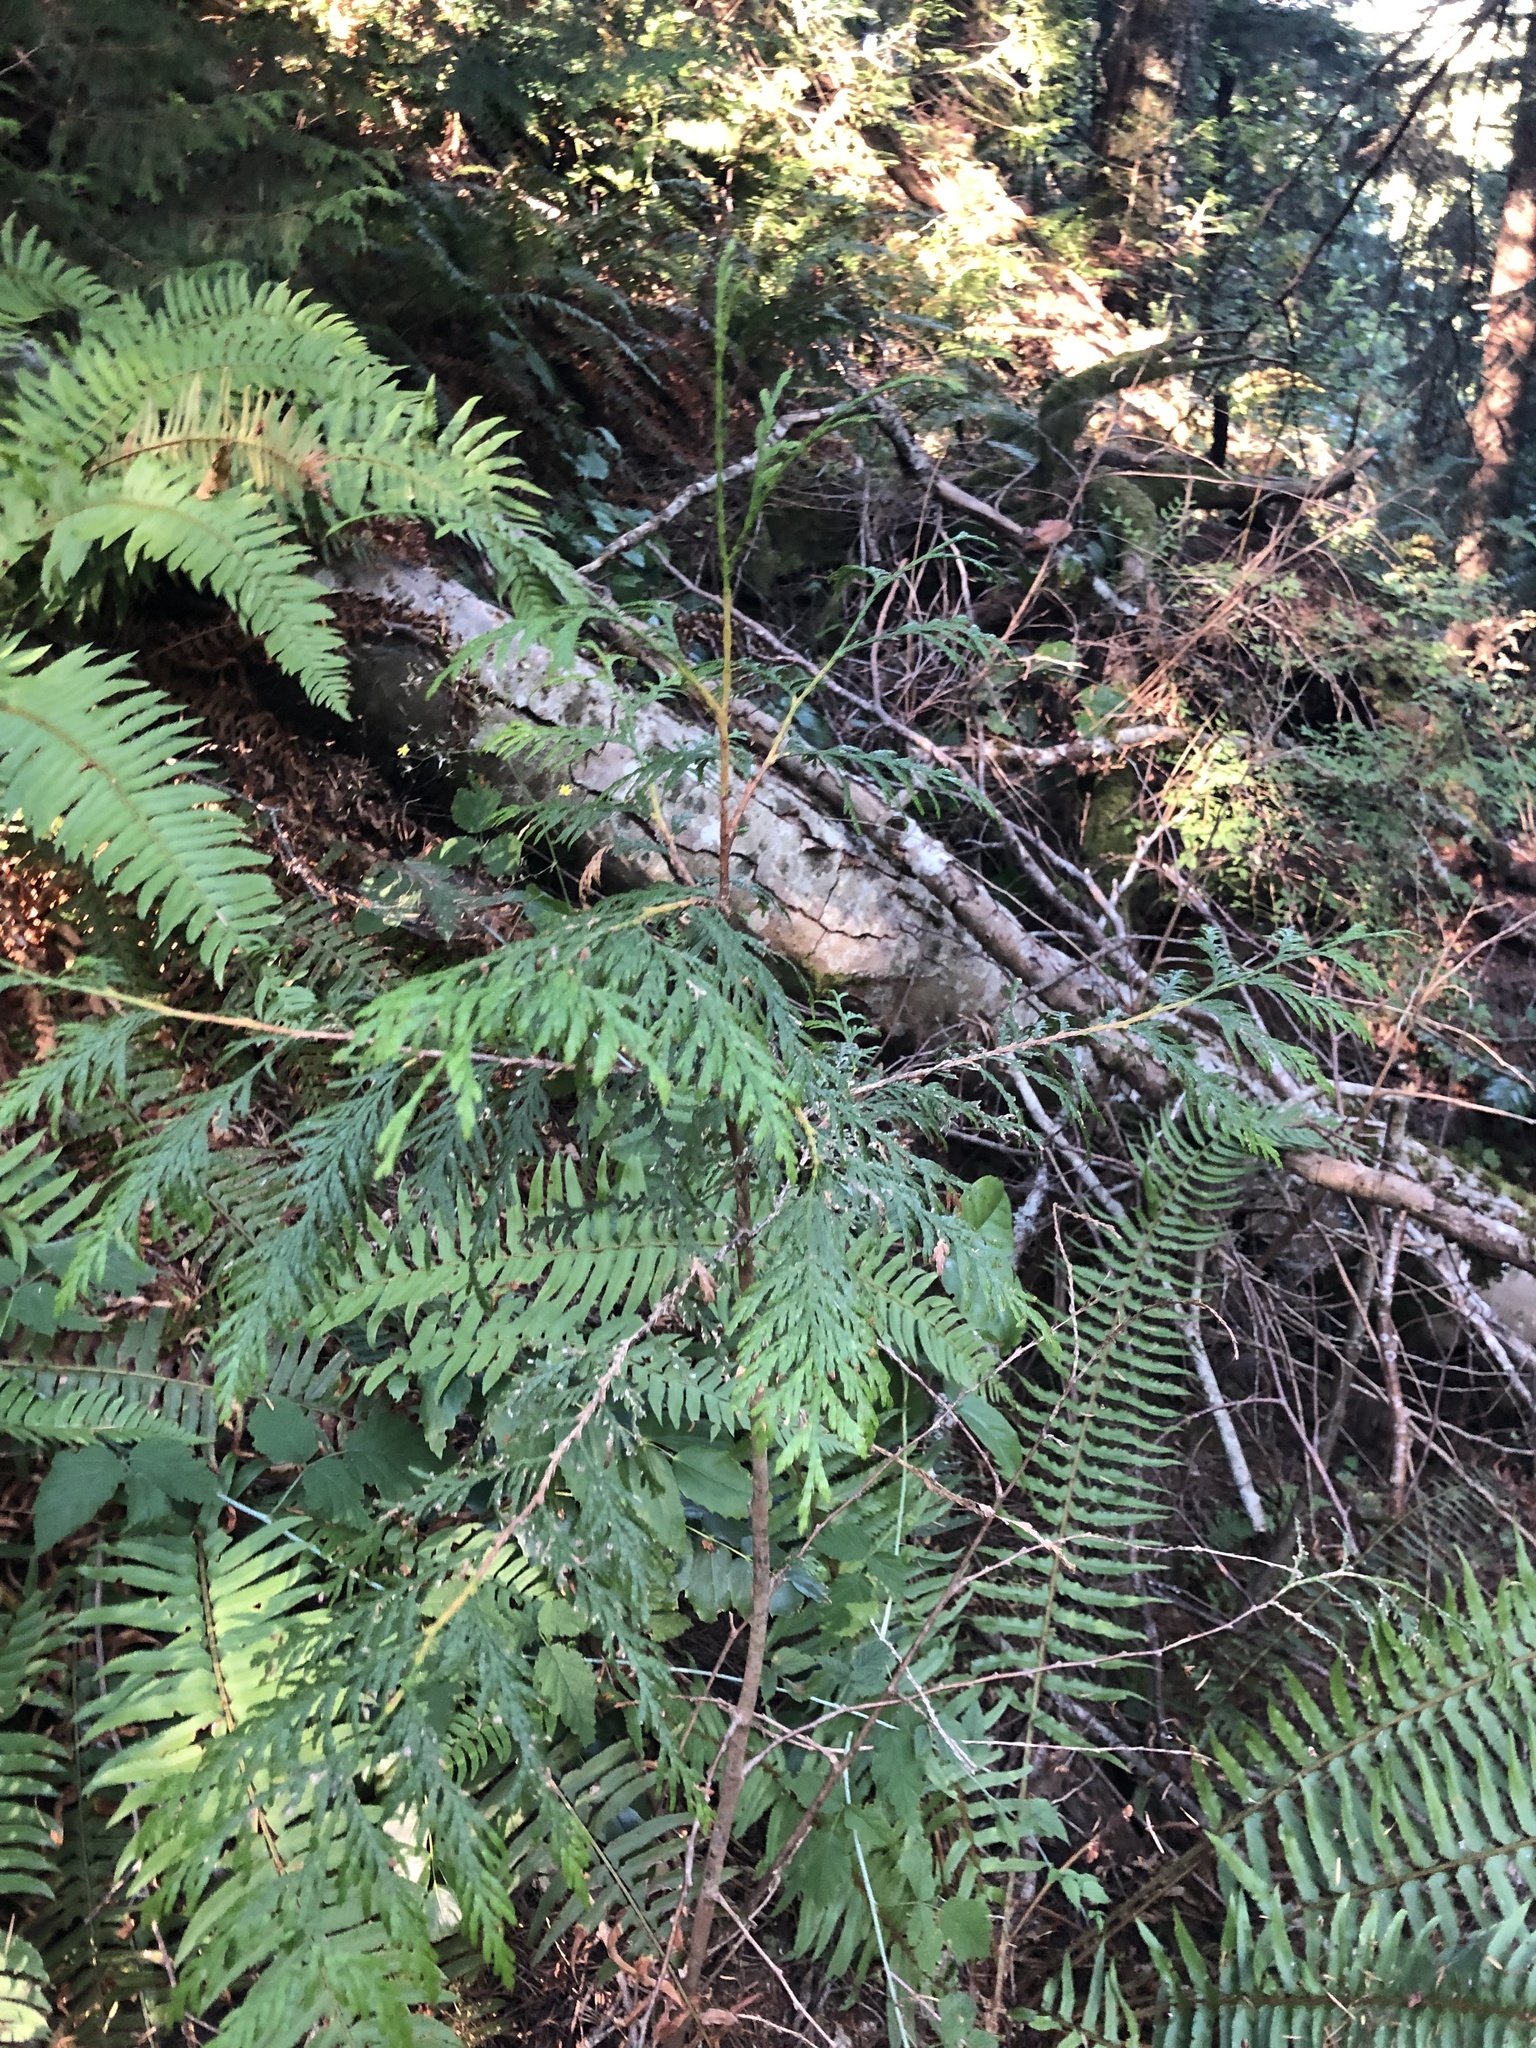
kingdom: Plantae
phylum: Tracheophyta
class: Pinopsida
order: Pinales
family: Cupressaceae
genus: Thuja
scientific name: Thuja plicata
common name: Western red-cedar
